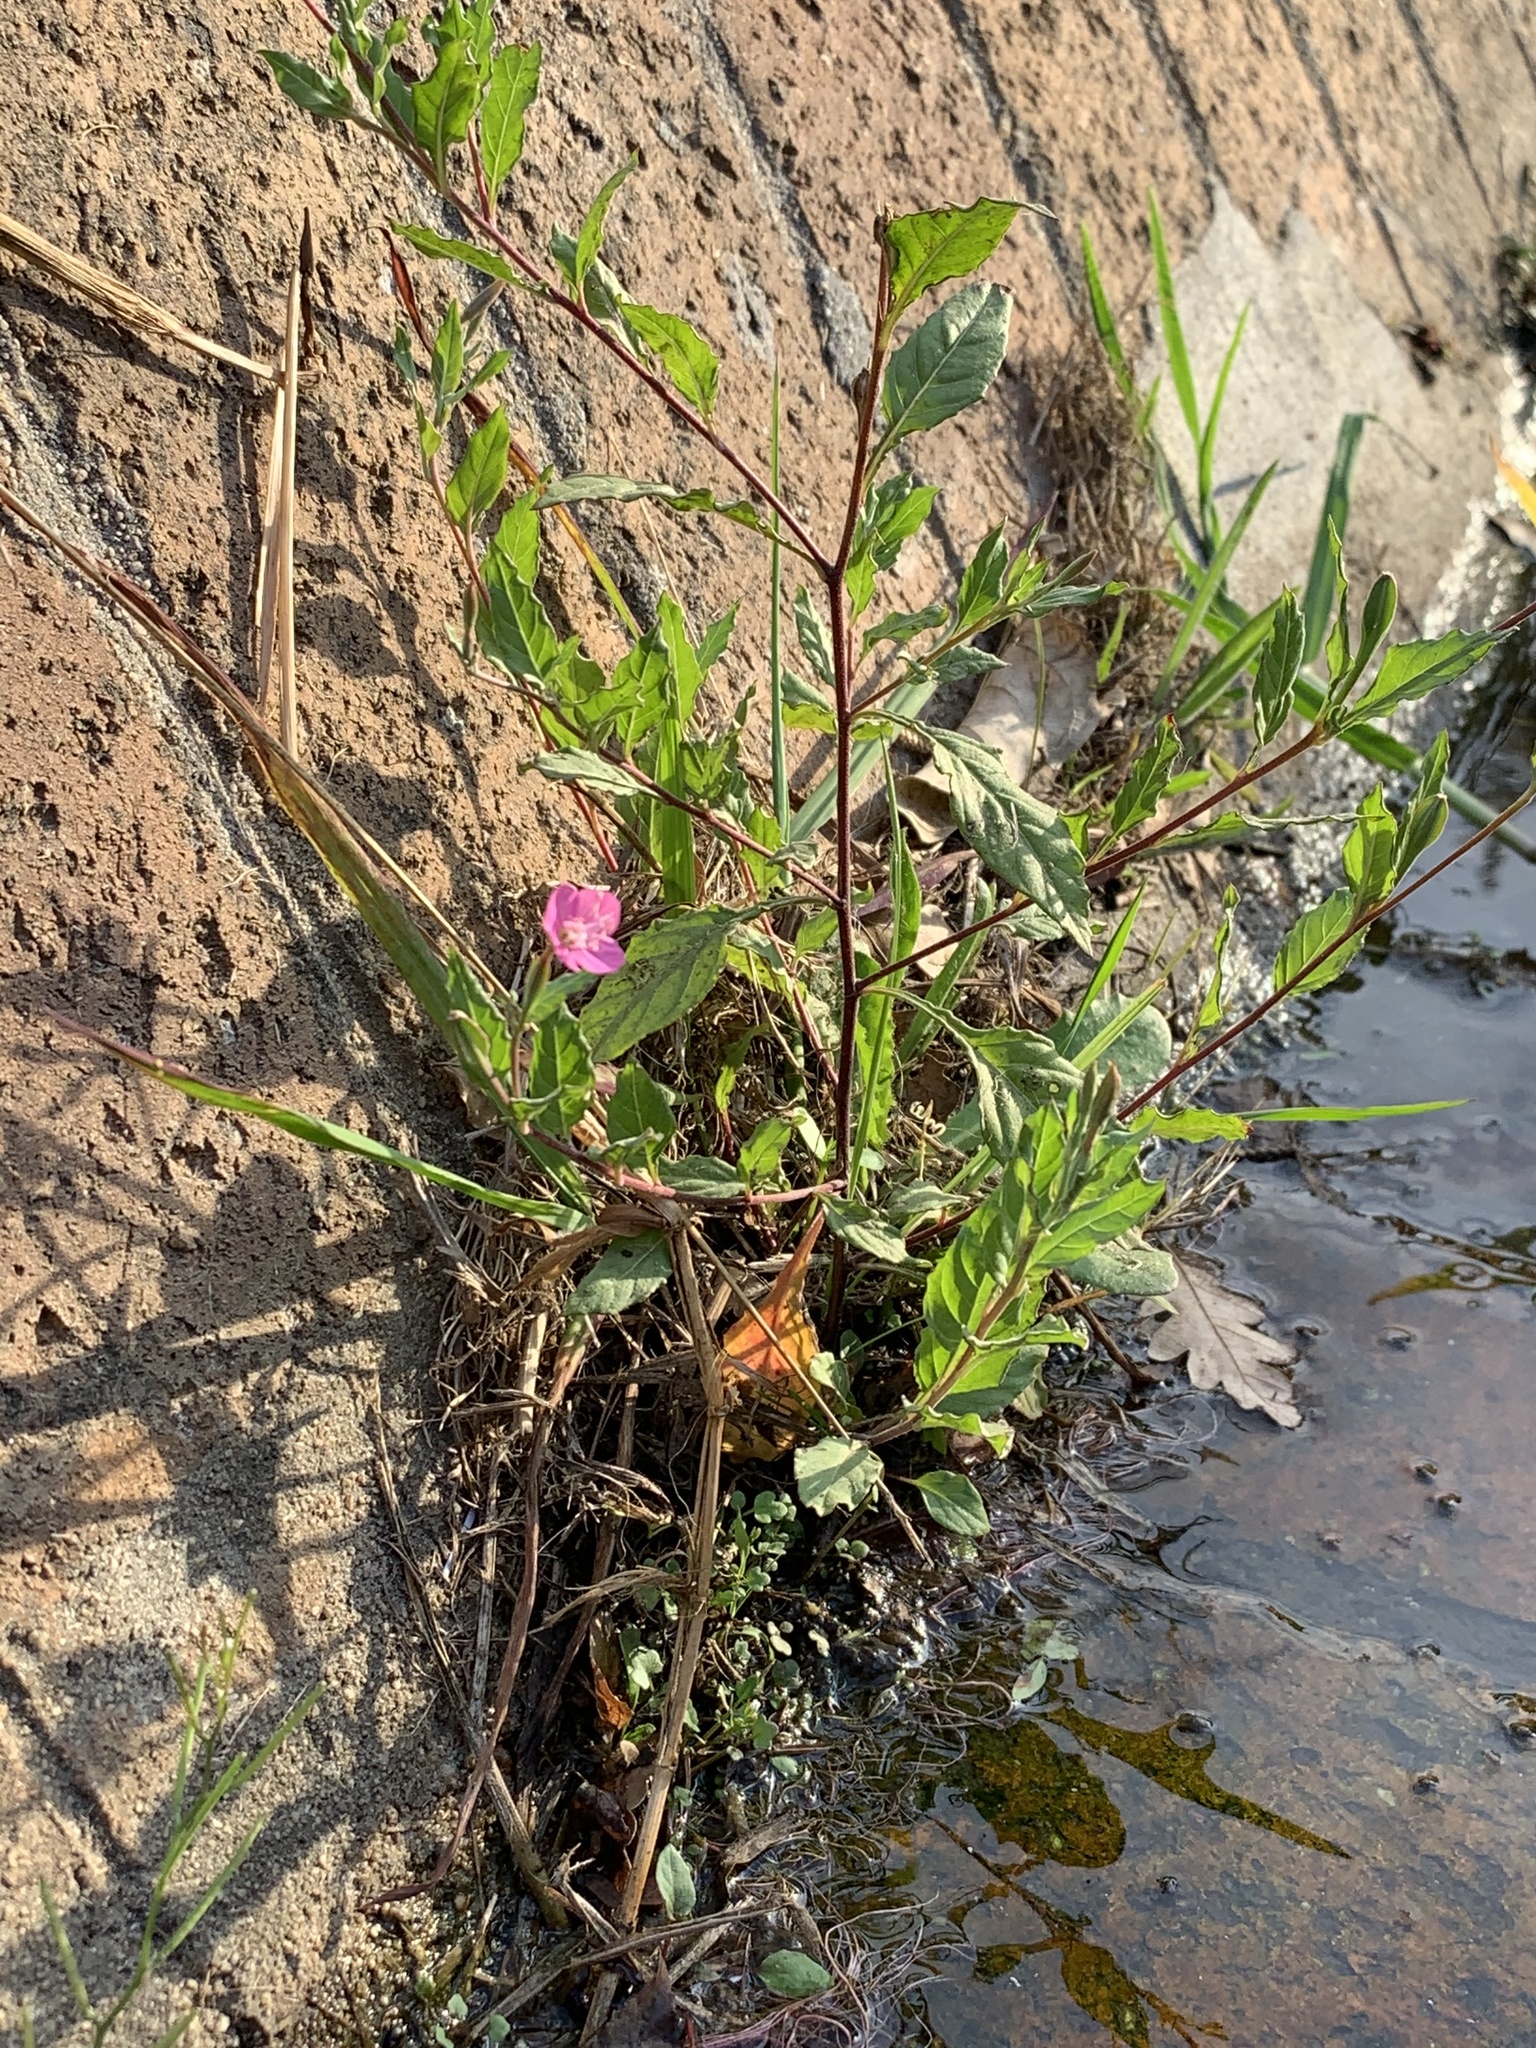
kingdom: Plantae
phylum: Tracheophyta
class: Magnoliopsida
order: Myrtales
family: Onagraceae
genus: Oenothera
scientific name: Oenothera rosea
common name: Rosy evening-primrose
